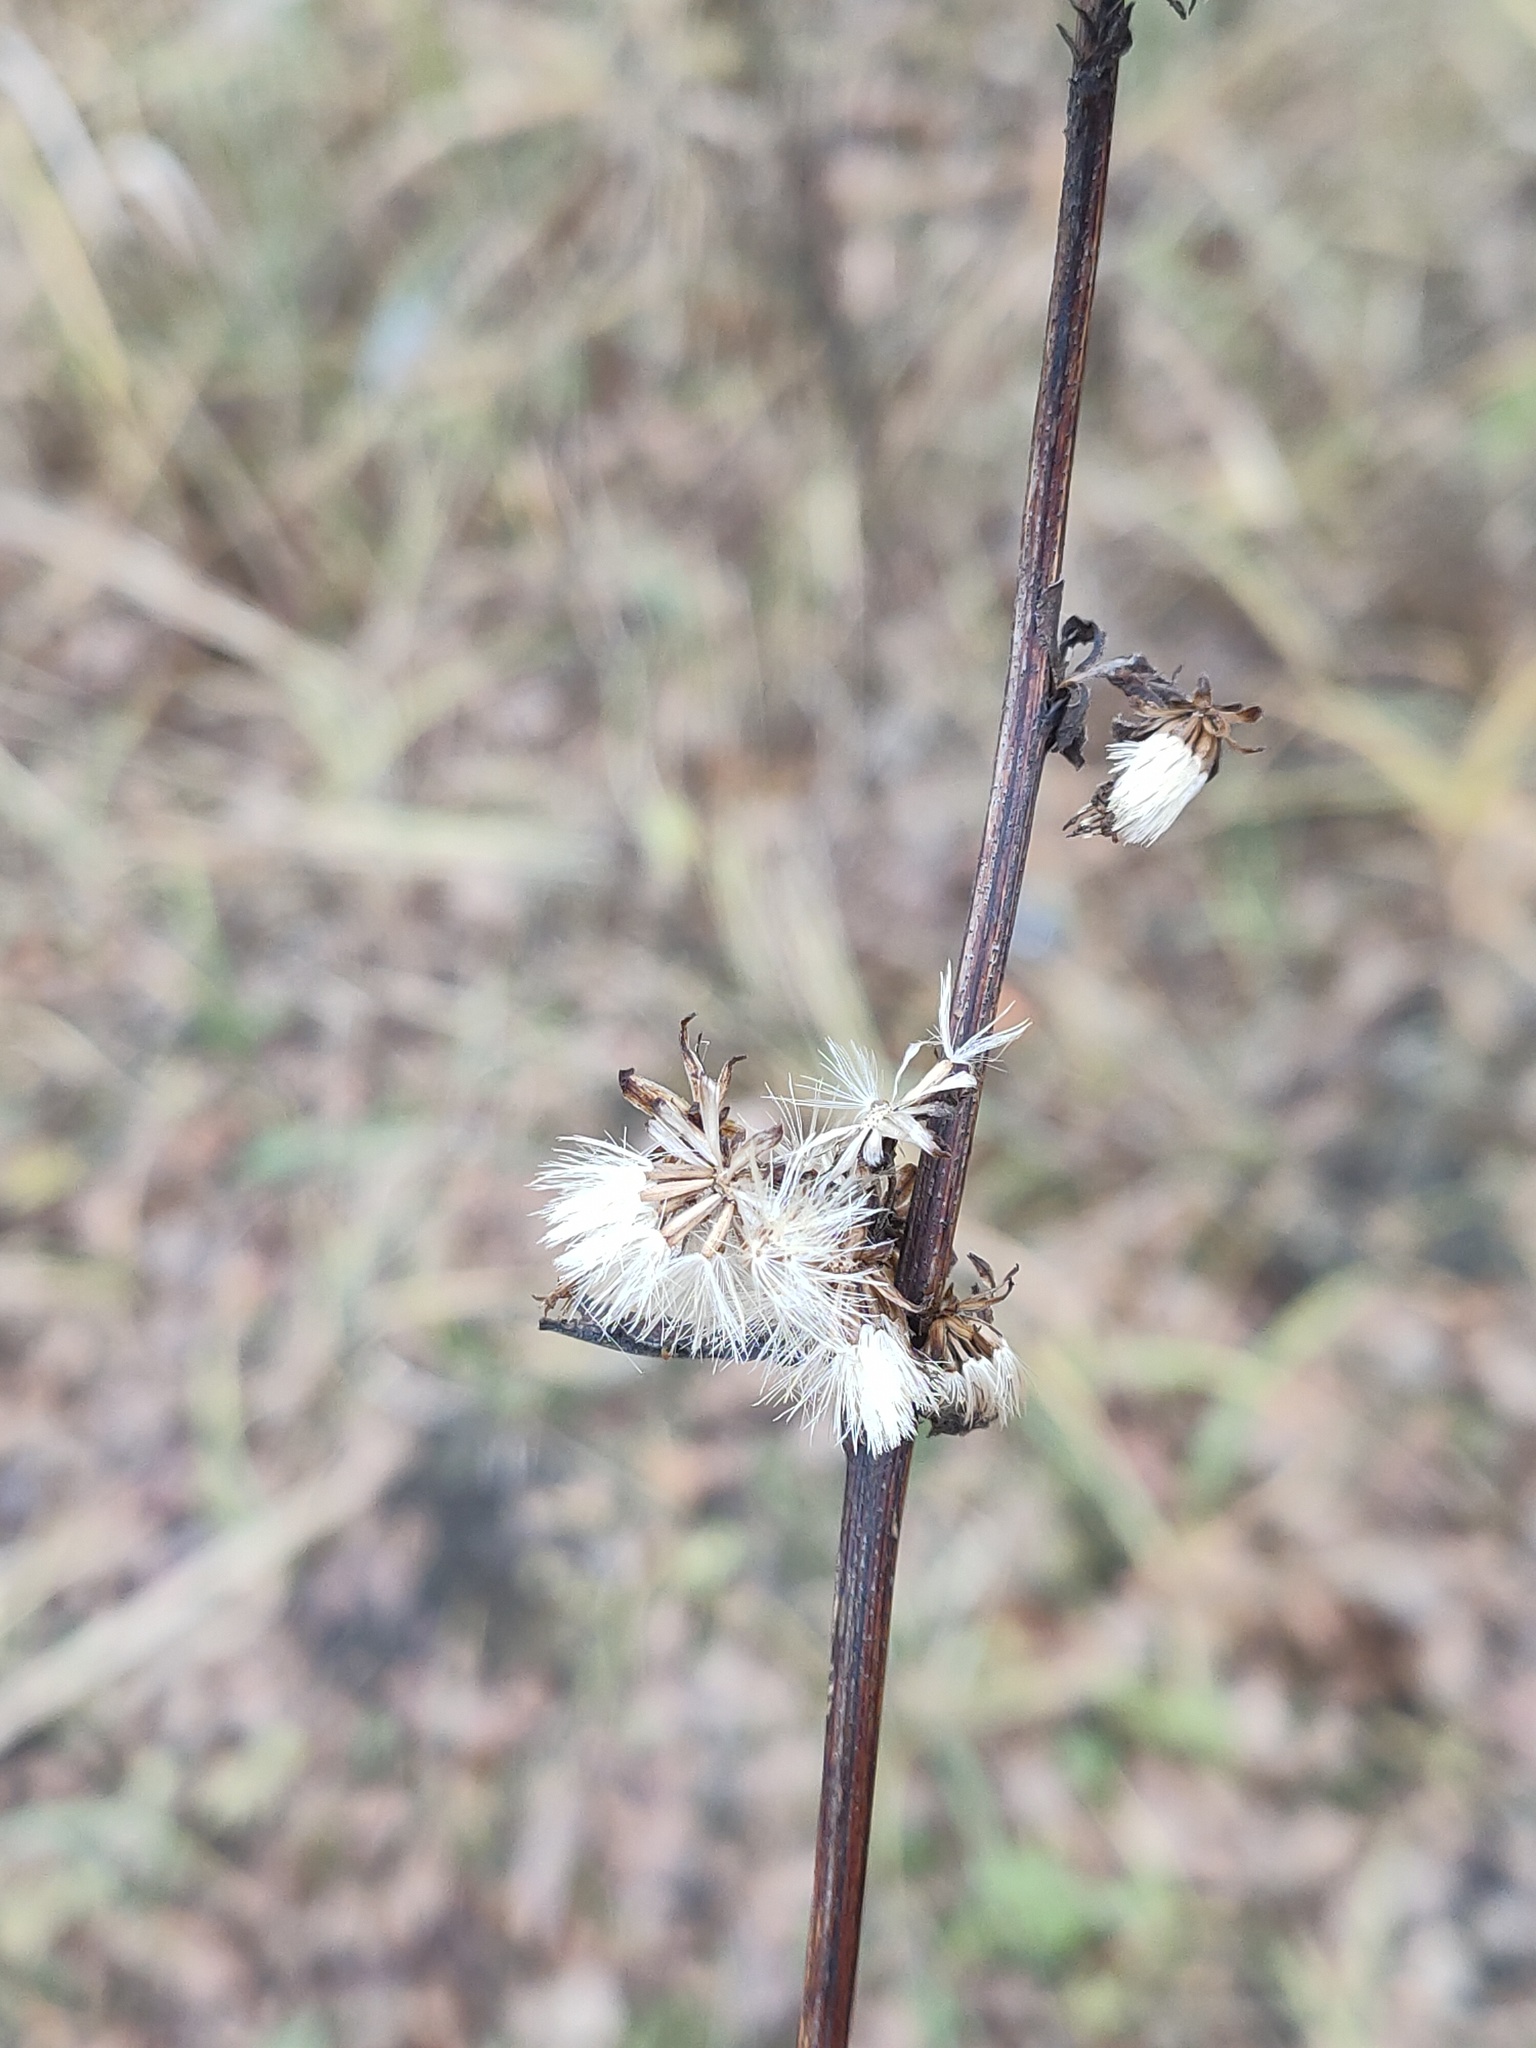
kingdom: Plantae
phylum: Tracheophyta
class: Magnoliopsida
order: Asterales
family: Asteraceae
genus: Solidago
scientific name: Solidago virgaurea
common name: Goldenrod
